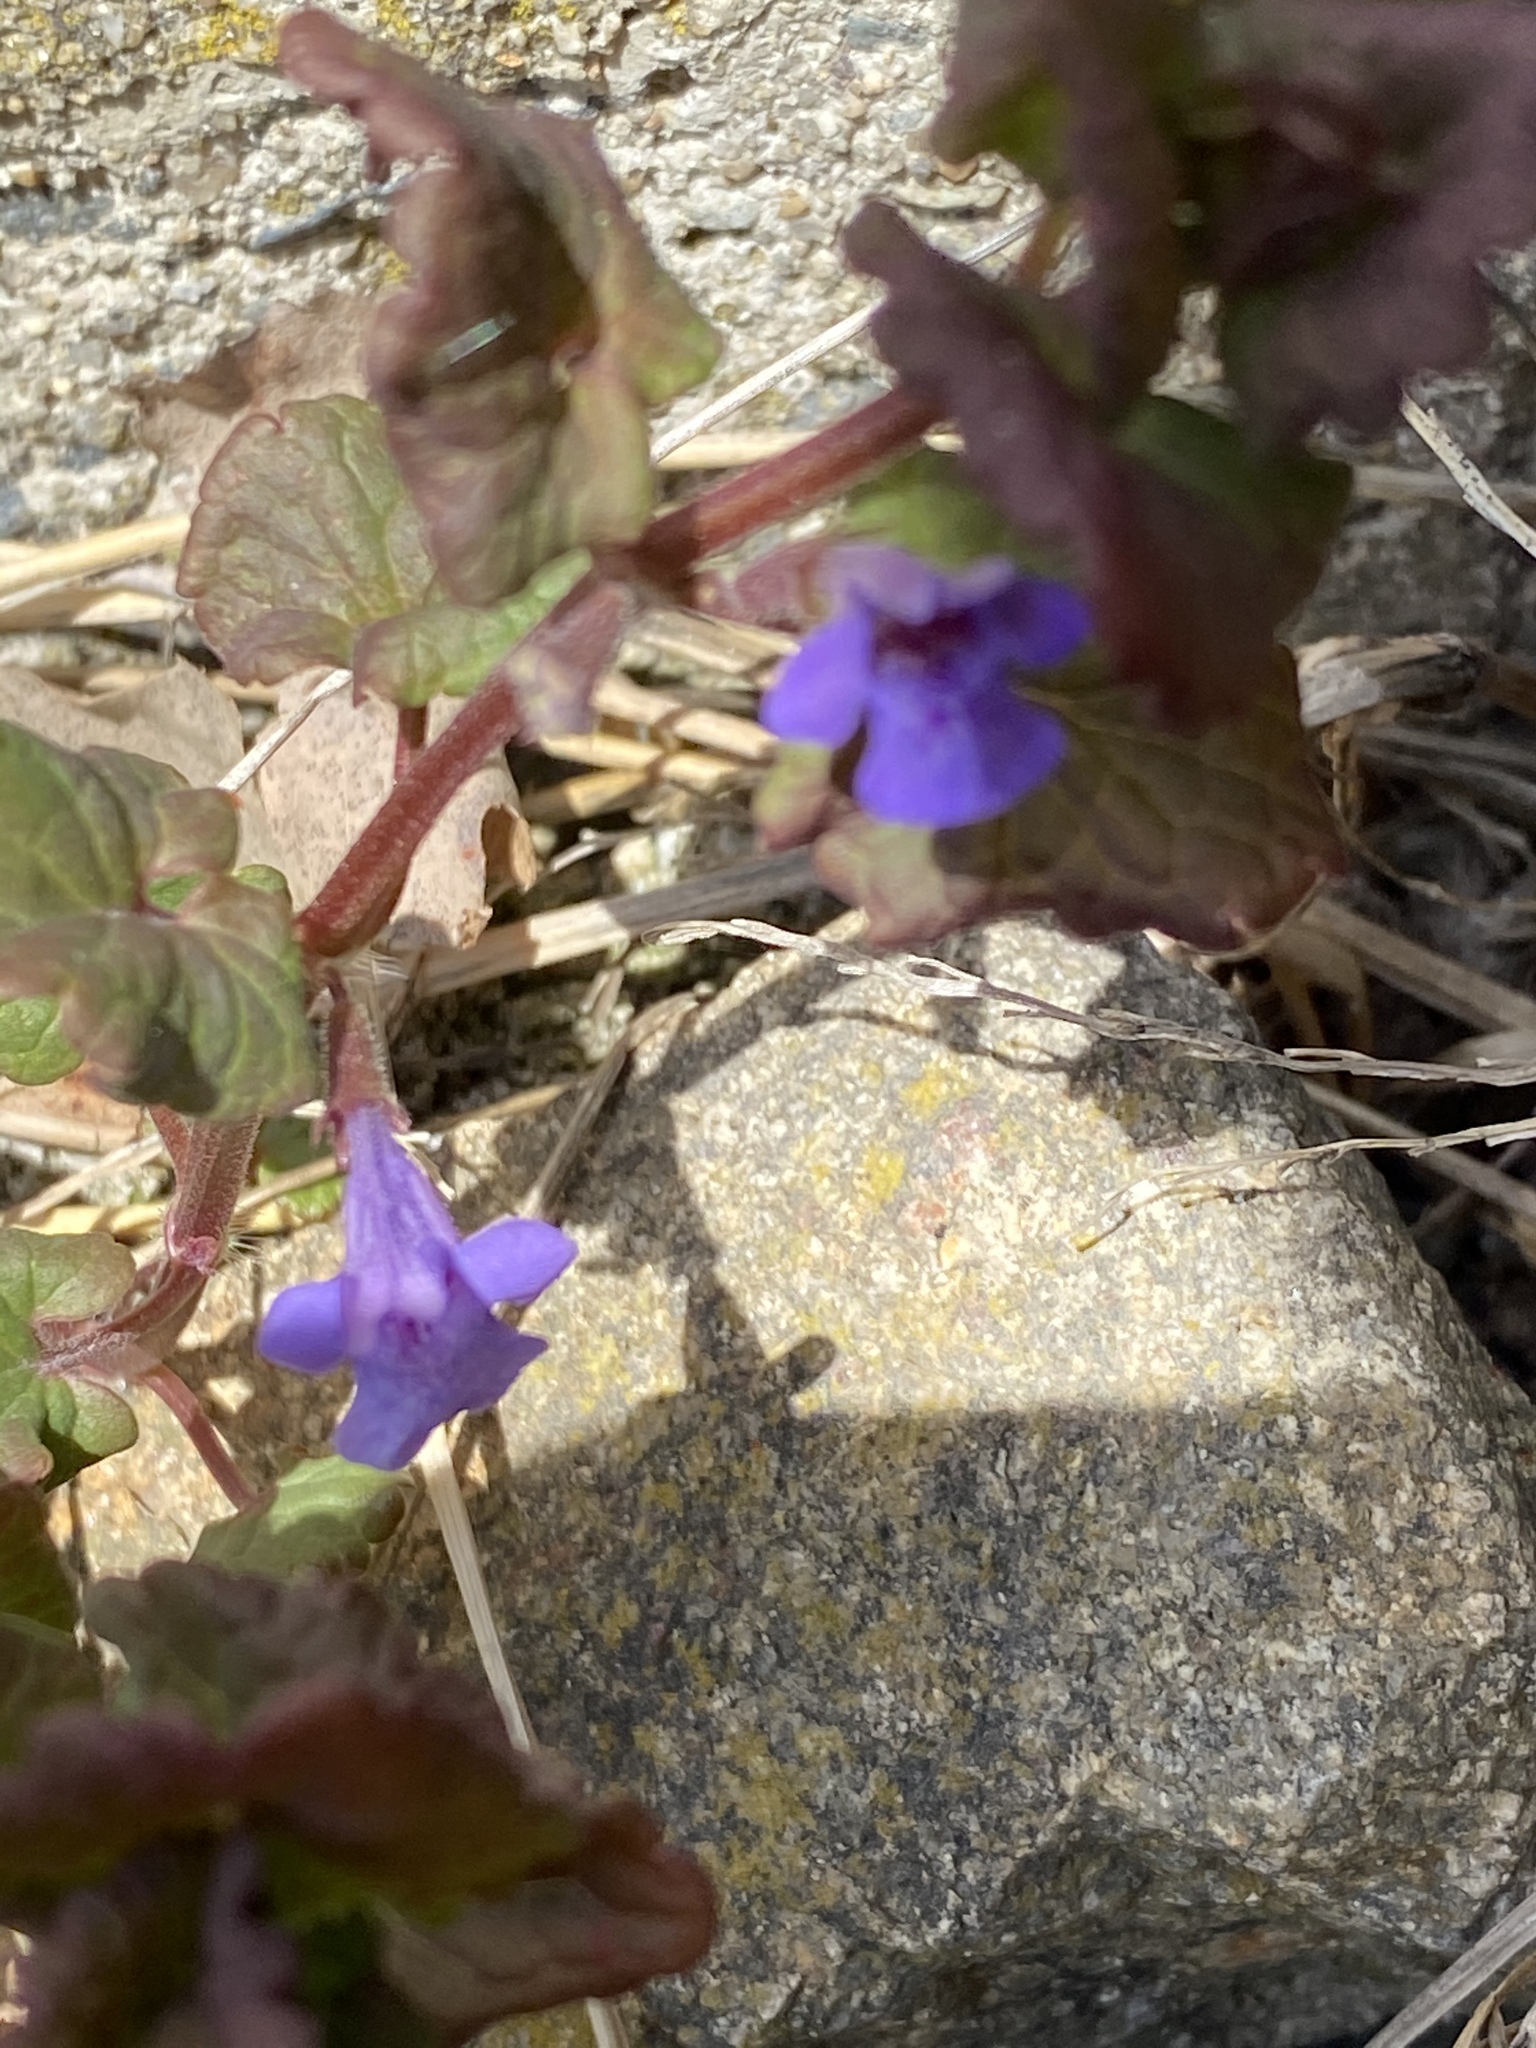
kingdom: Plantae
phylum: Tracheophyta
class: Magnoliopsida
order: Lamiales
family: Lamiaceae
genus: Glechoma
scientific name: Glechoma hederacea
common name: Ground ivy
